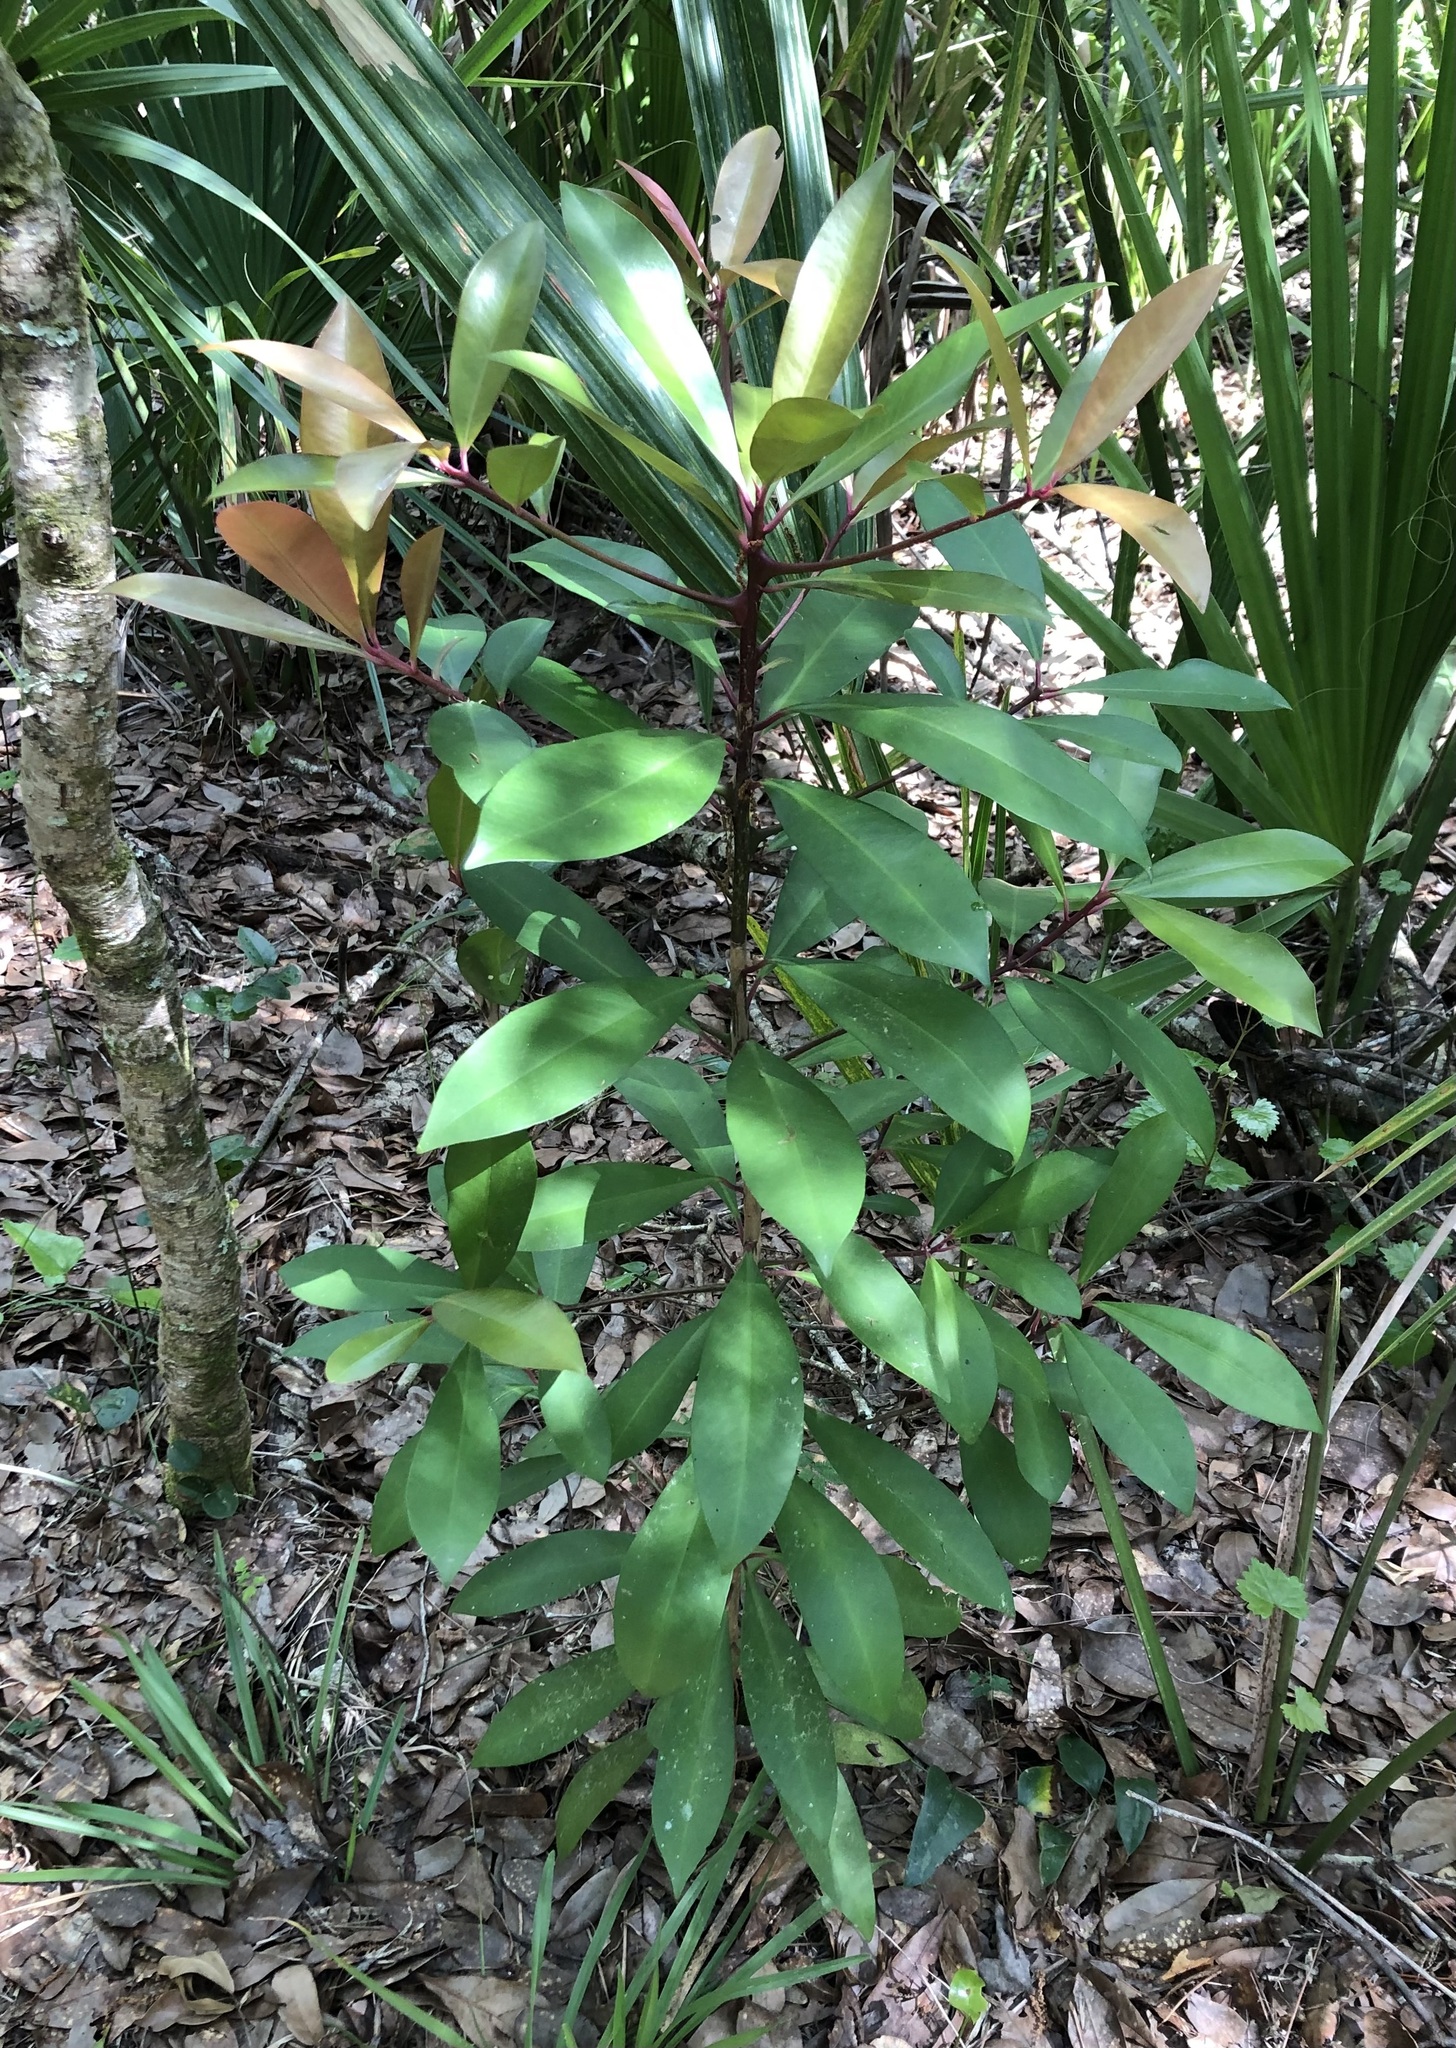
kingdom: Plantae
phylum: Tracheophyta
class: Magnoliopsida
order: Ericales
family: Primulaceae
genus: Ardisia
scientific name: Ardisia elliptica
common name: Shoebutton
